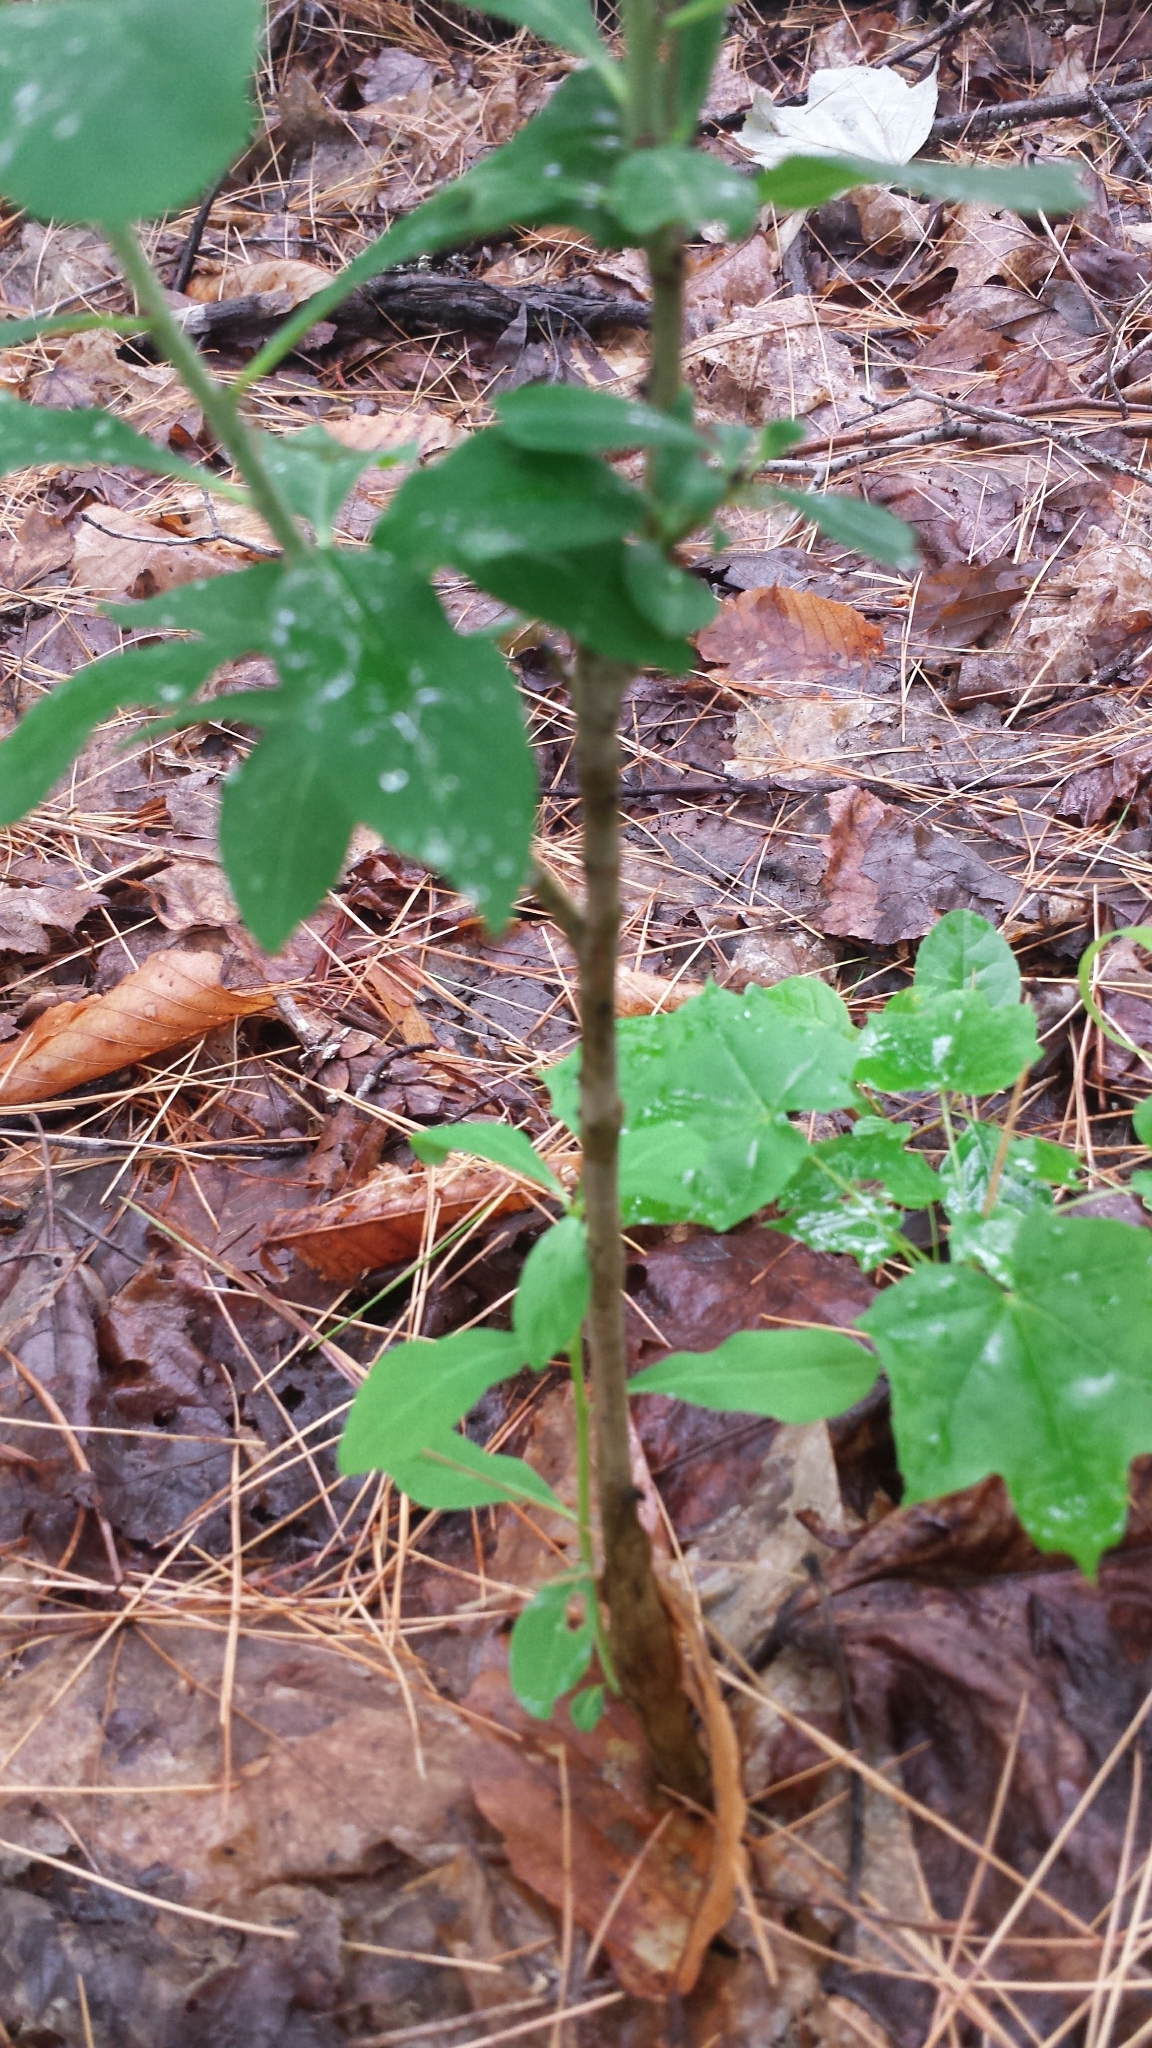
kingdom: Plantae
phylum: Tracheophyta
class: Magnoliopsida
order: Malvales
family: Thymelaeaceae
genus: Daphne
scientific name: Daphne mezereum
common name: Mezereon
